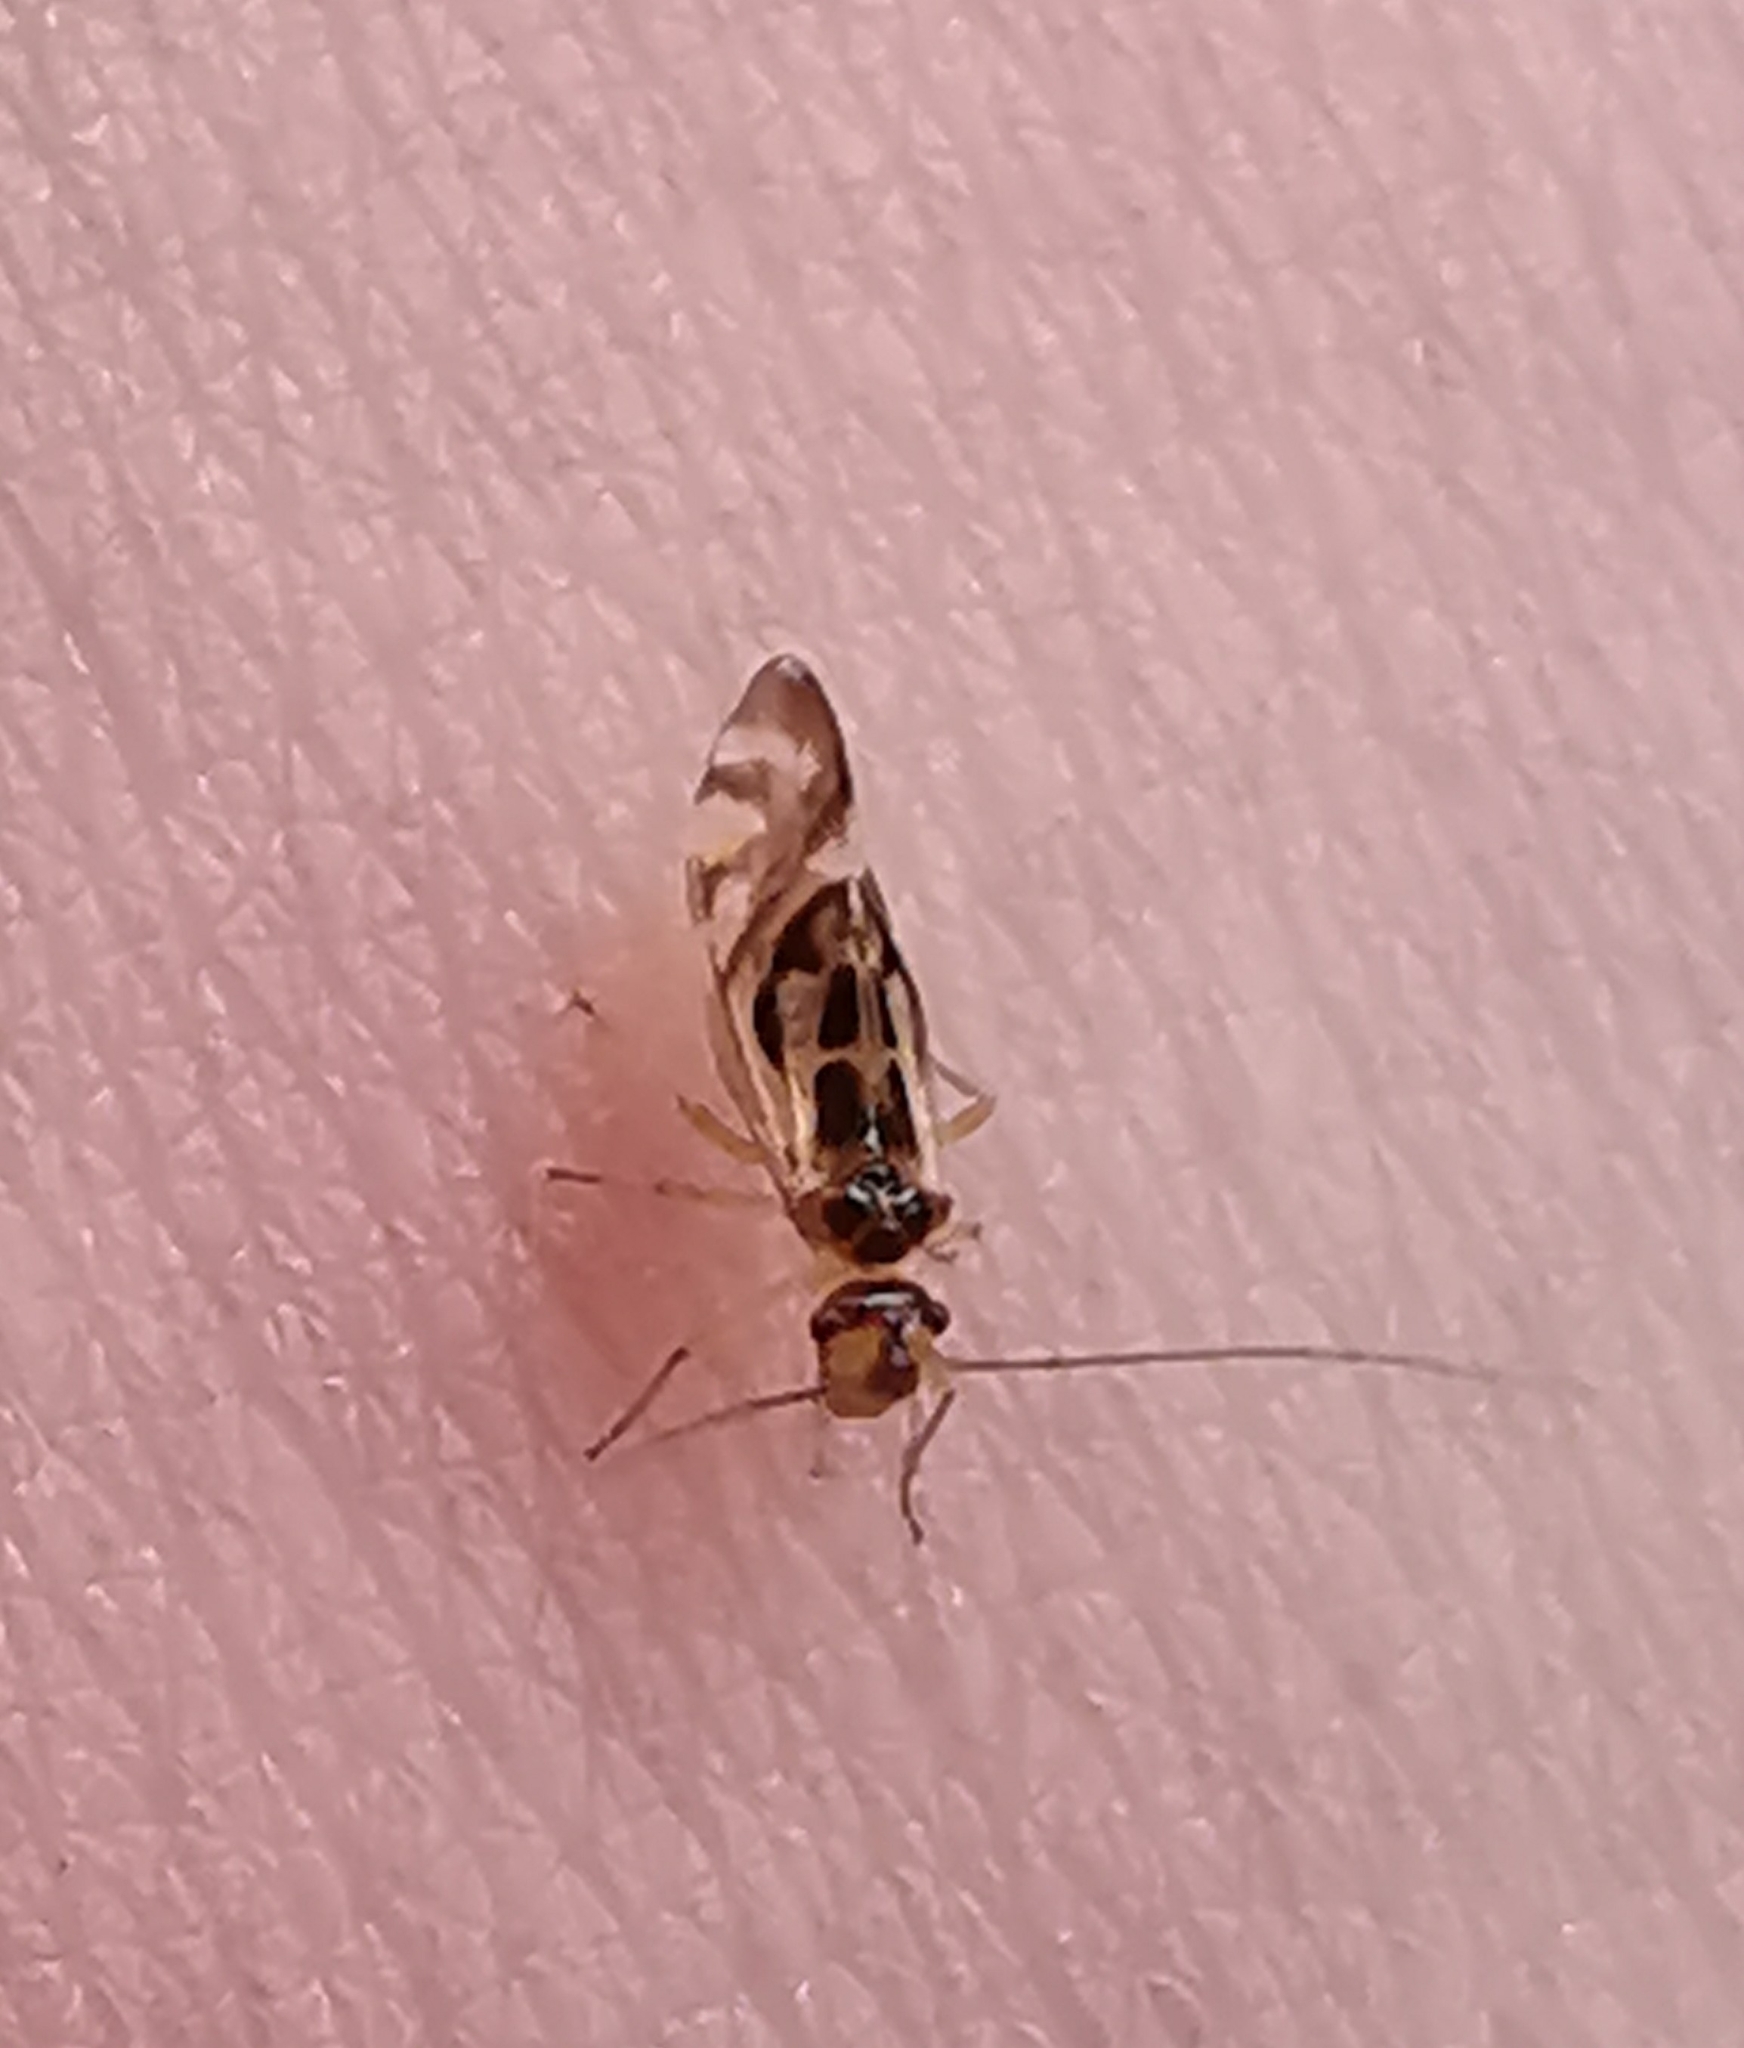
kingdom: Animalia
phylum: Arthropoda
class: Insecta
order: Psocodea
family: Stenopsocidae
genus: Graphopsocus
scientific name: Graphopsocus cruciatus
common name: Lizard bark louse
